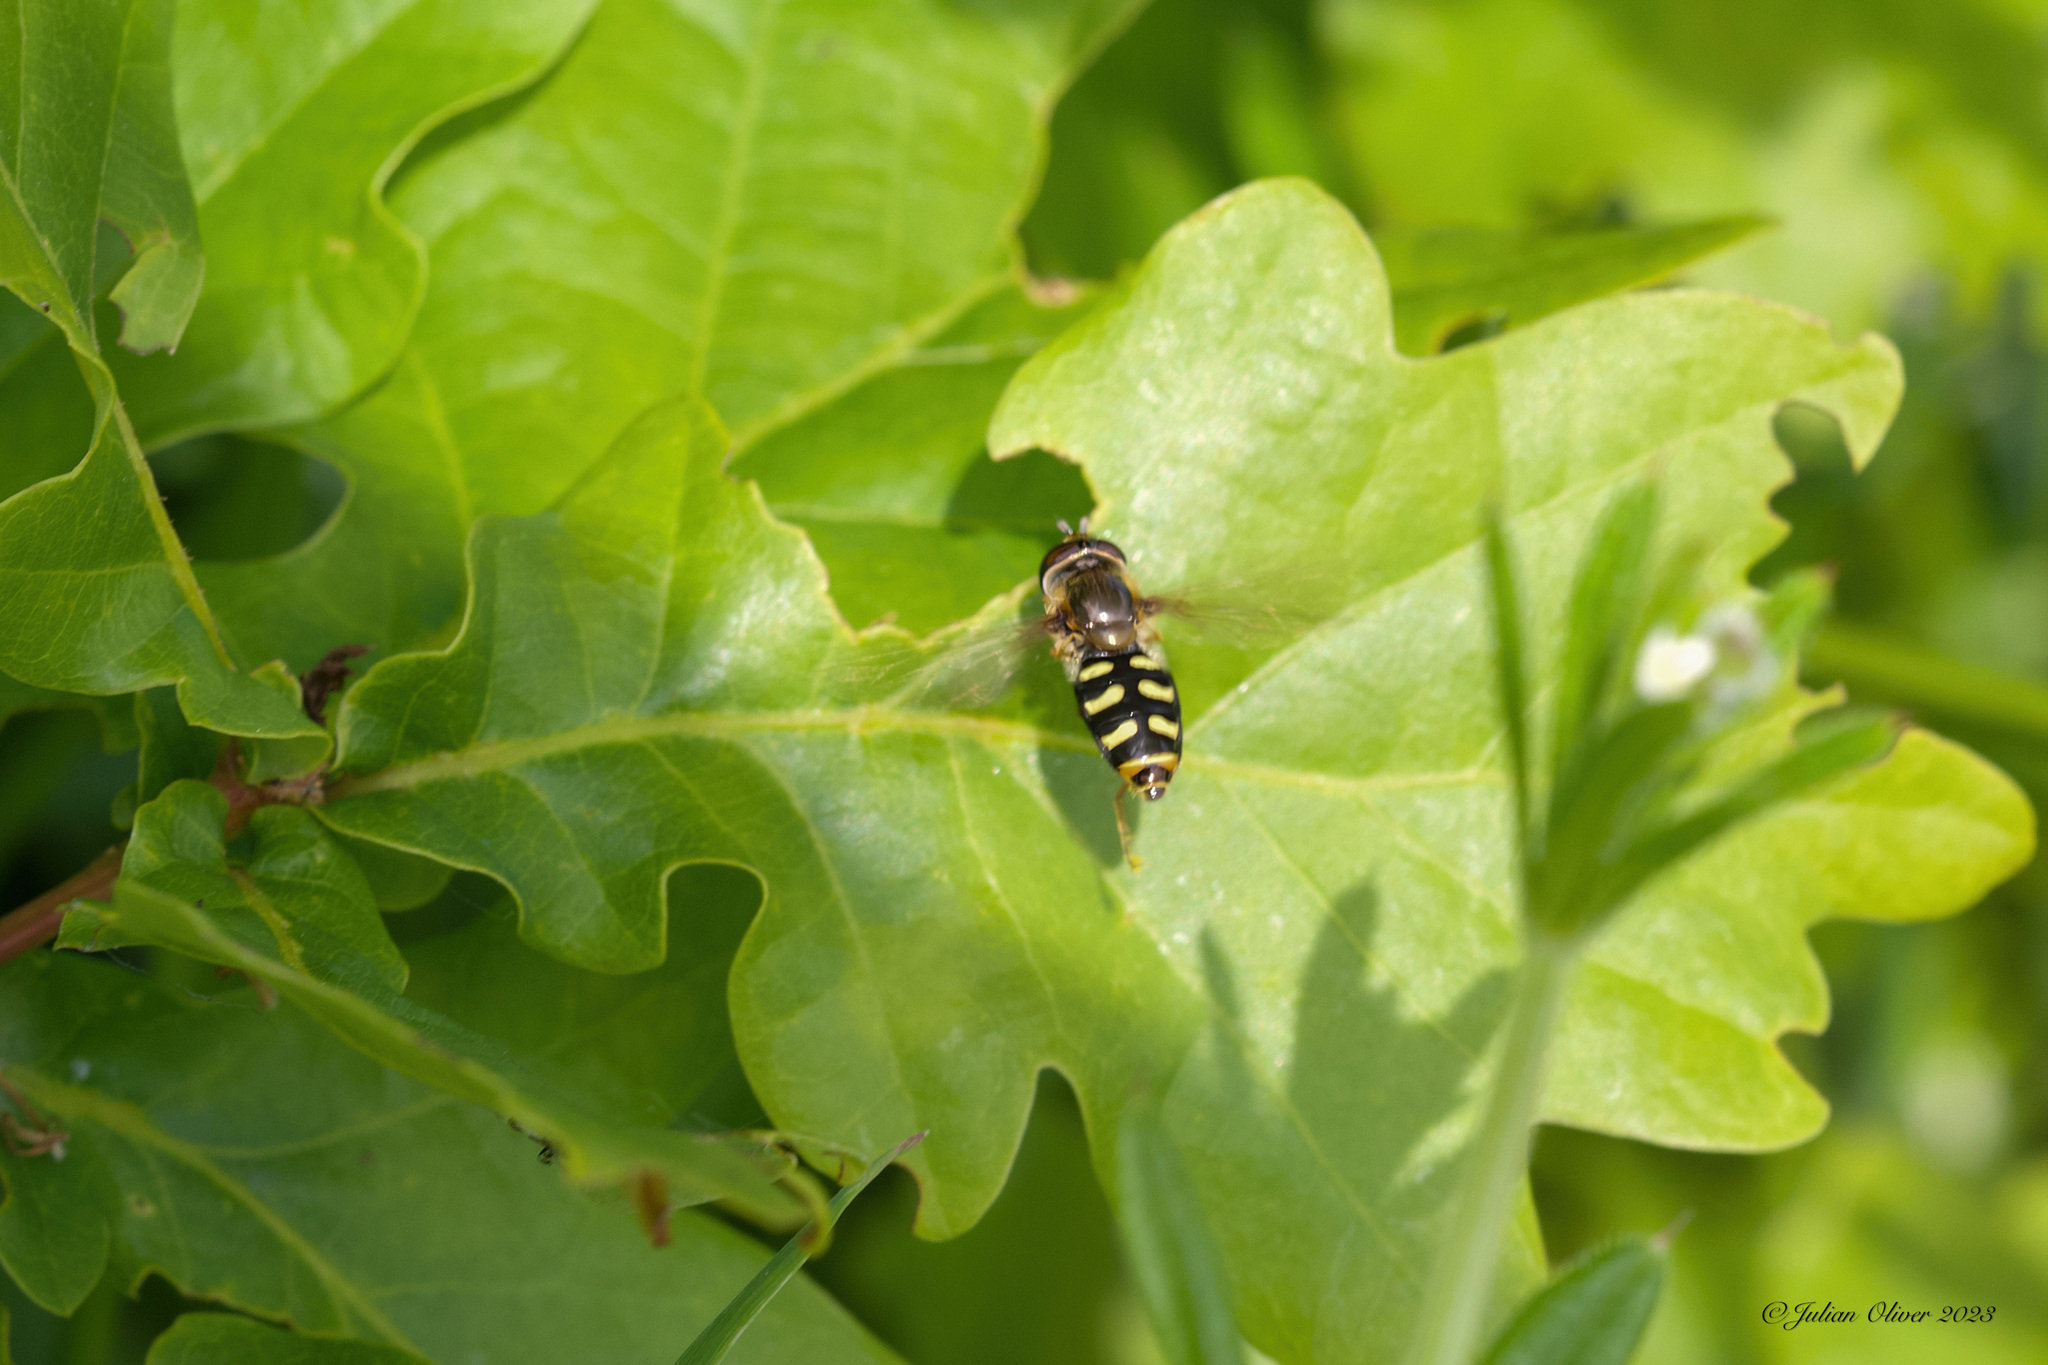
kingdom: Animalia
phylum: Arthropoda
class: Insecta
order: Diptera
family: Syrphidae
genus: Eupeodes
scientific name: Eupeodes
